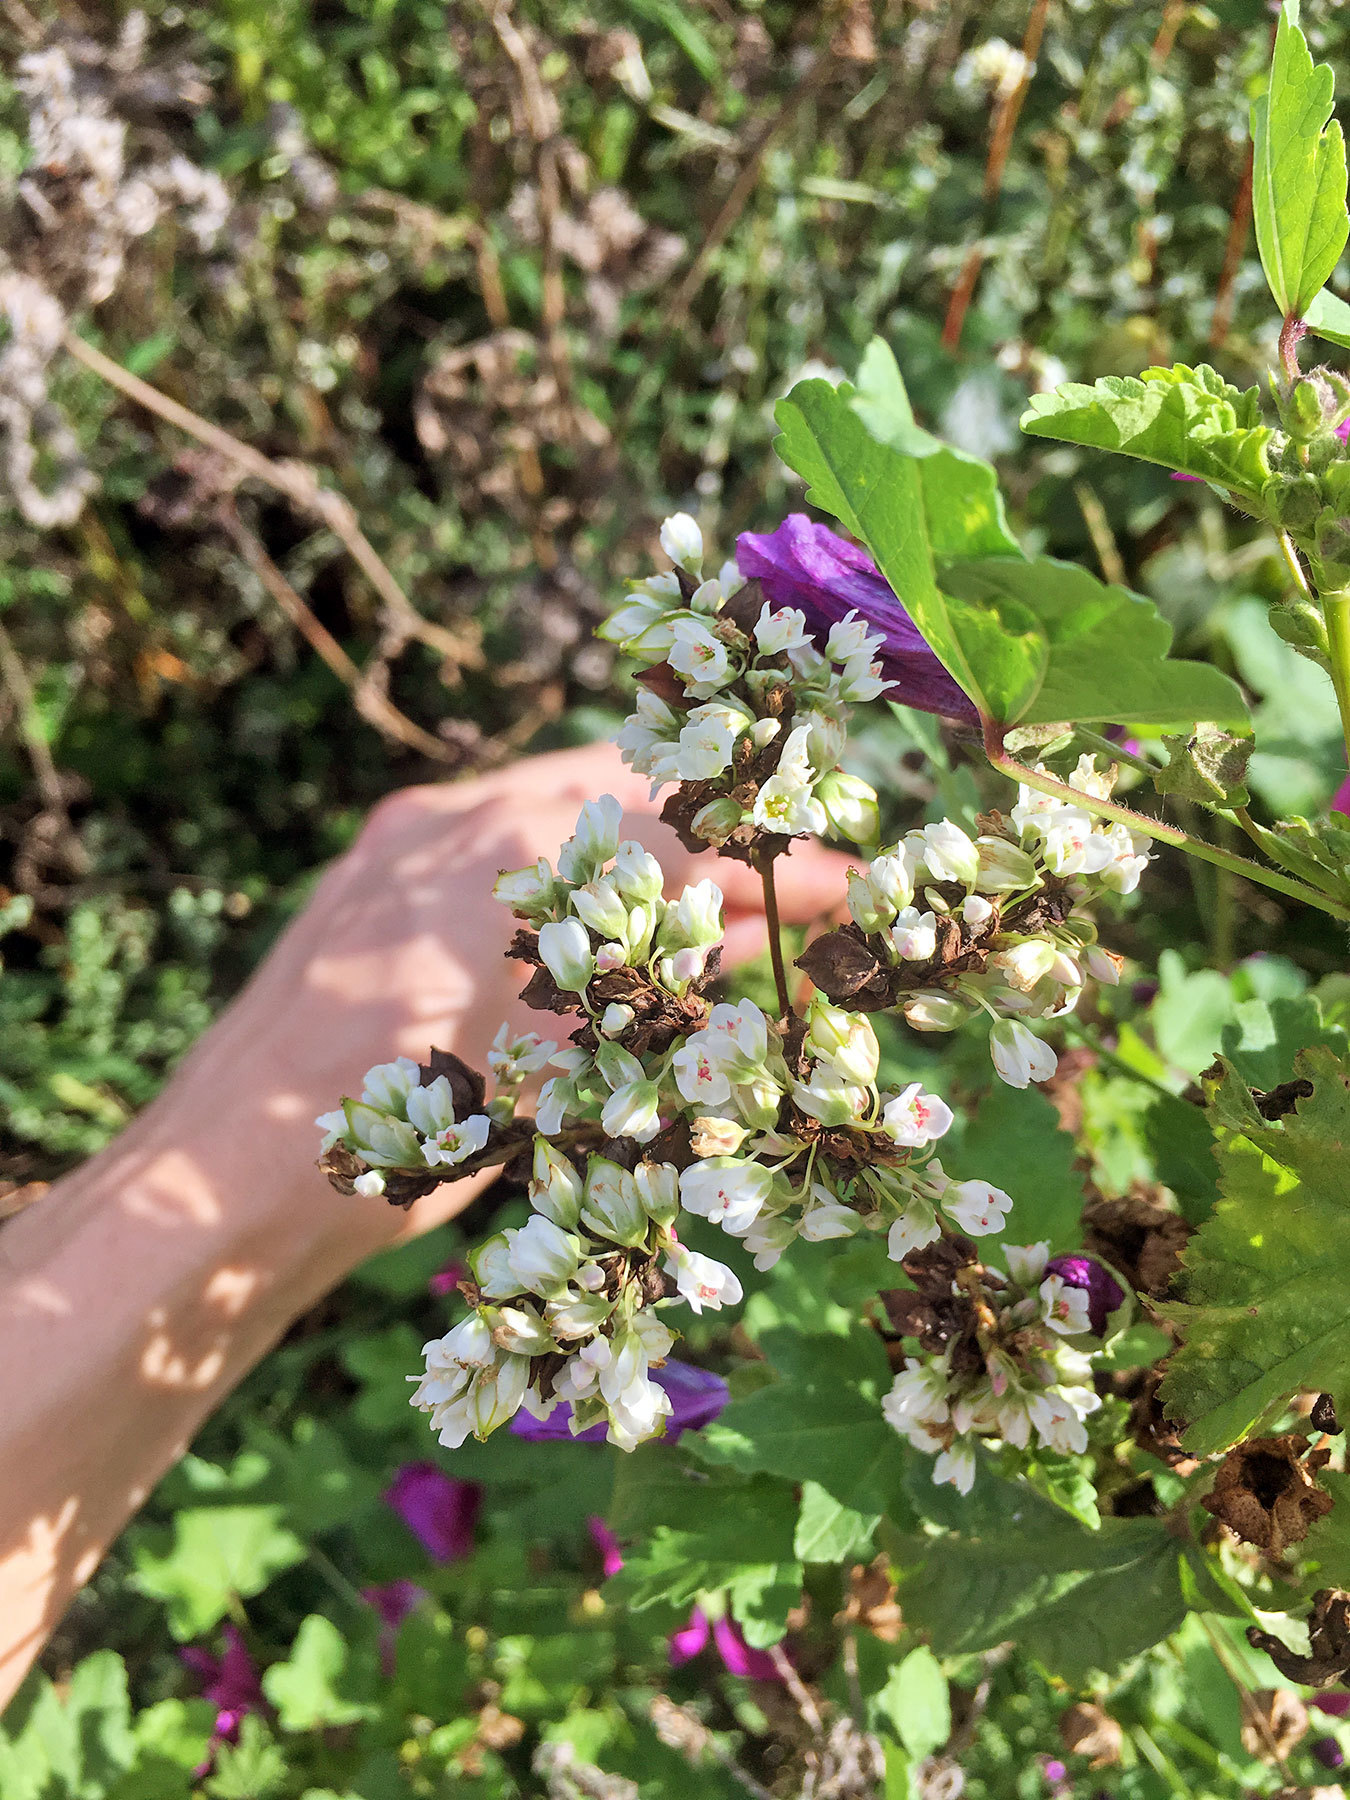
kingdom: Plantae
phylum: Tracheophyta
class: Magnoliopsida
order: Caryophyllales
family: Polygonaceae
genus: Fagopyrum
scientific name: Fagopyrum esculentum
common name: Buckwheat
